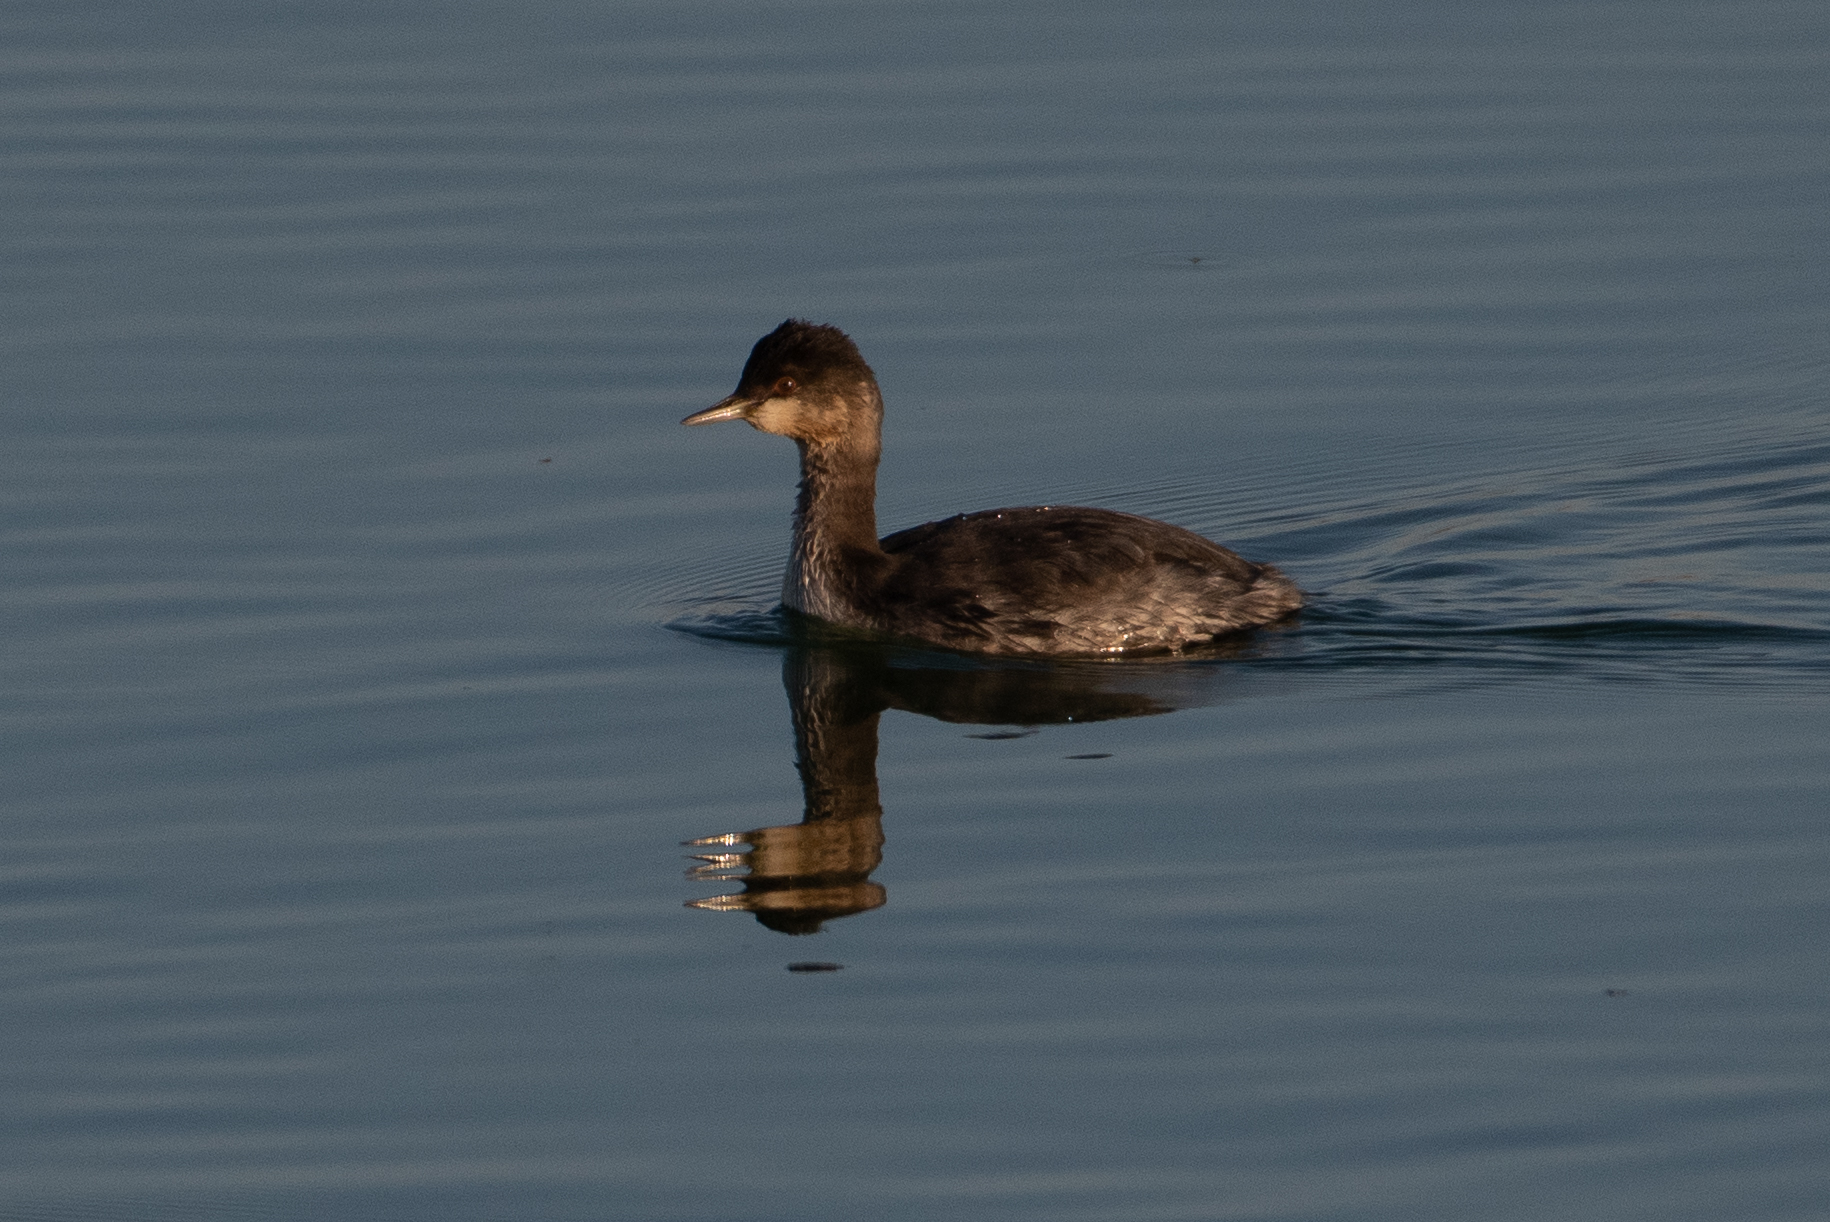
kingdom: Animalia
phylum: Chordata
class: Aves
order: Podicipediformes
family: Podicipedidae
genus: Podiceps
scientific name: Podiceps nigricollis
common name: Black-necked grebe
